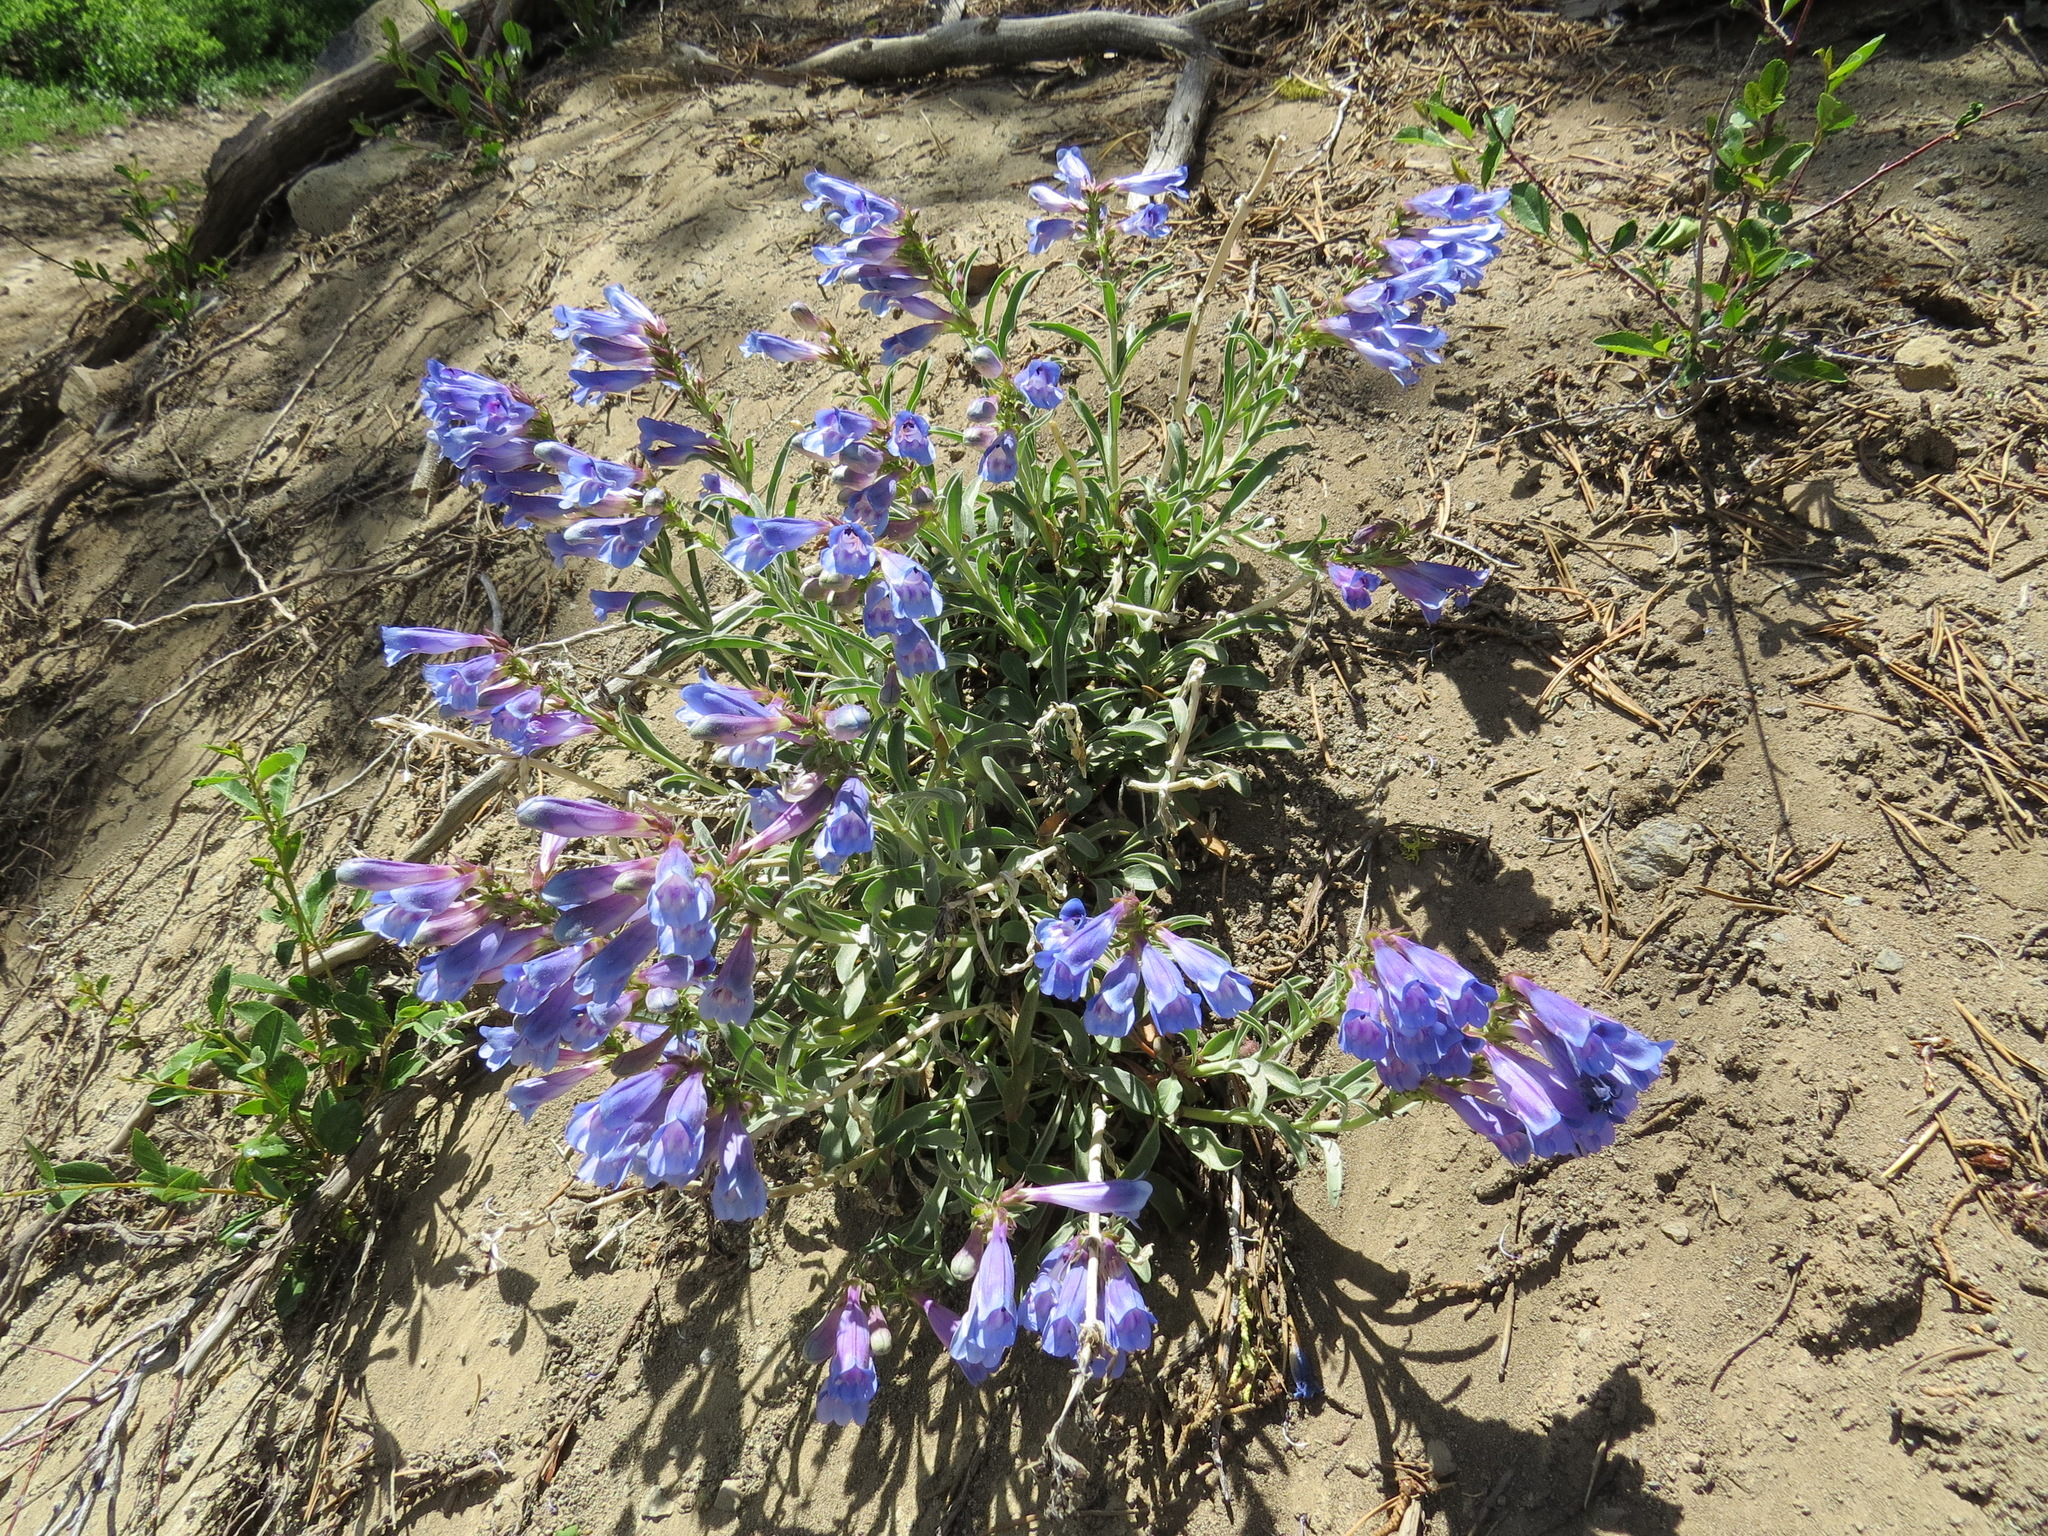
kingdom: Plantae
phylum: Tracheophyta
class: Magnoliopsida
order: Lamiales
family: Plantaginaceae
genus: Penstemon
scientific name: Penstemon speciosus
